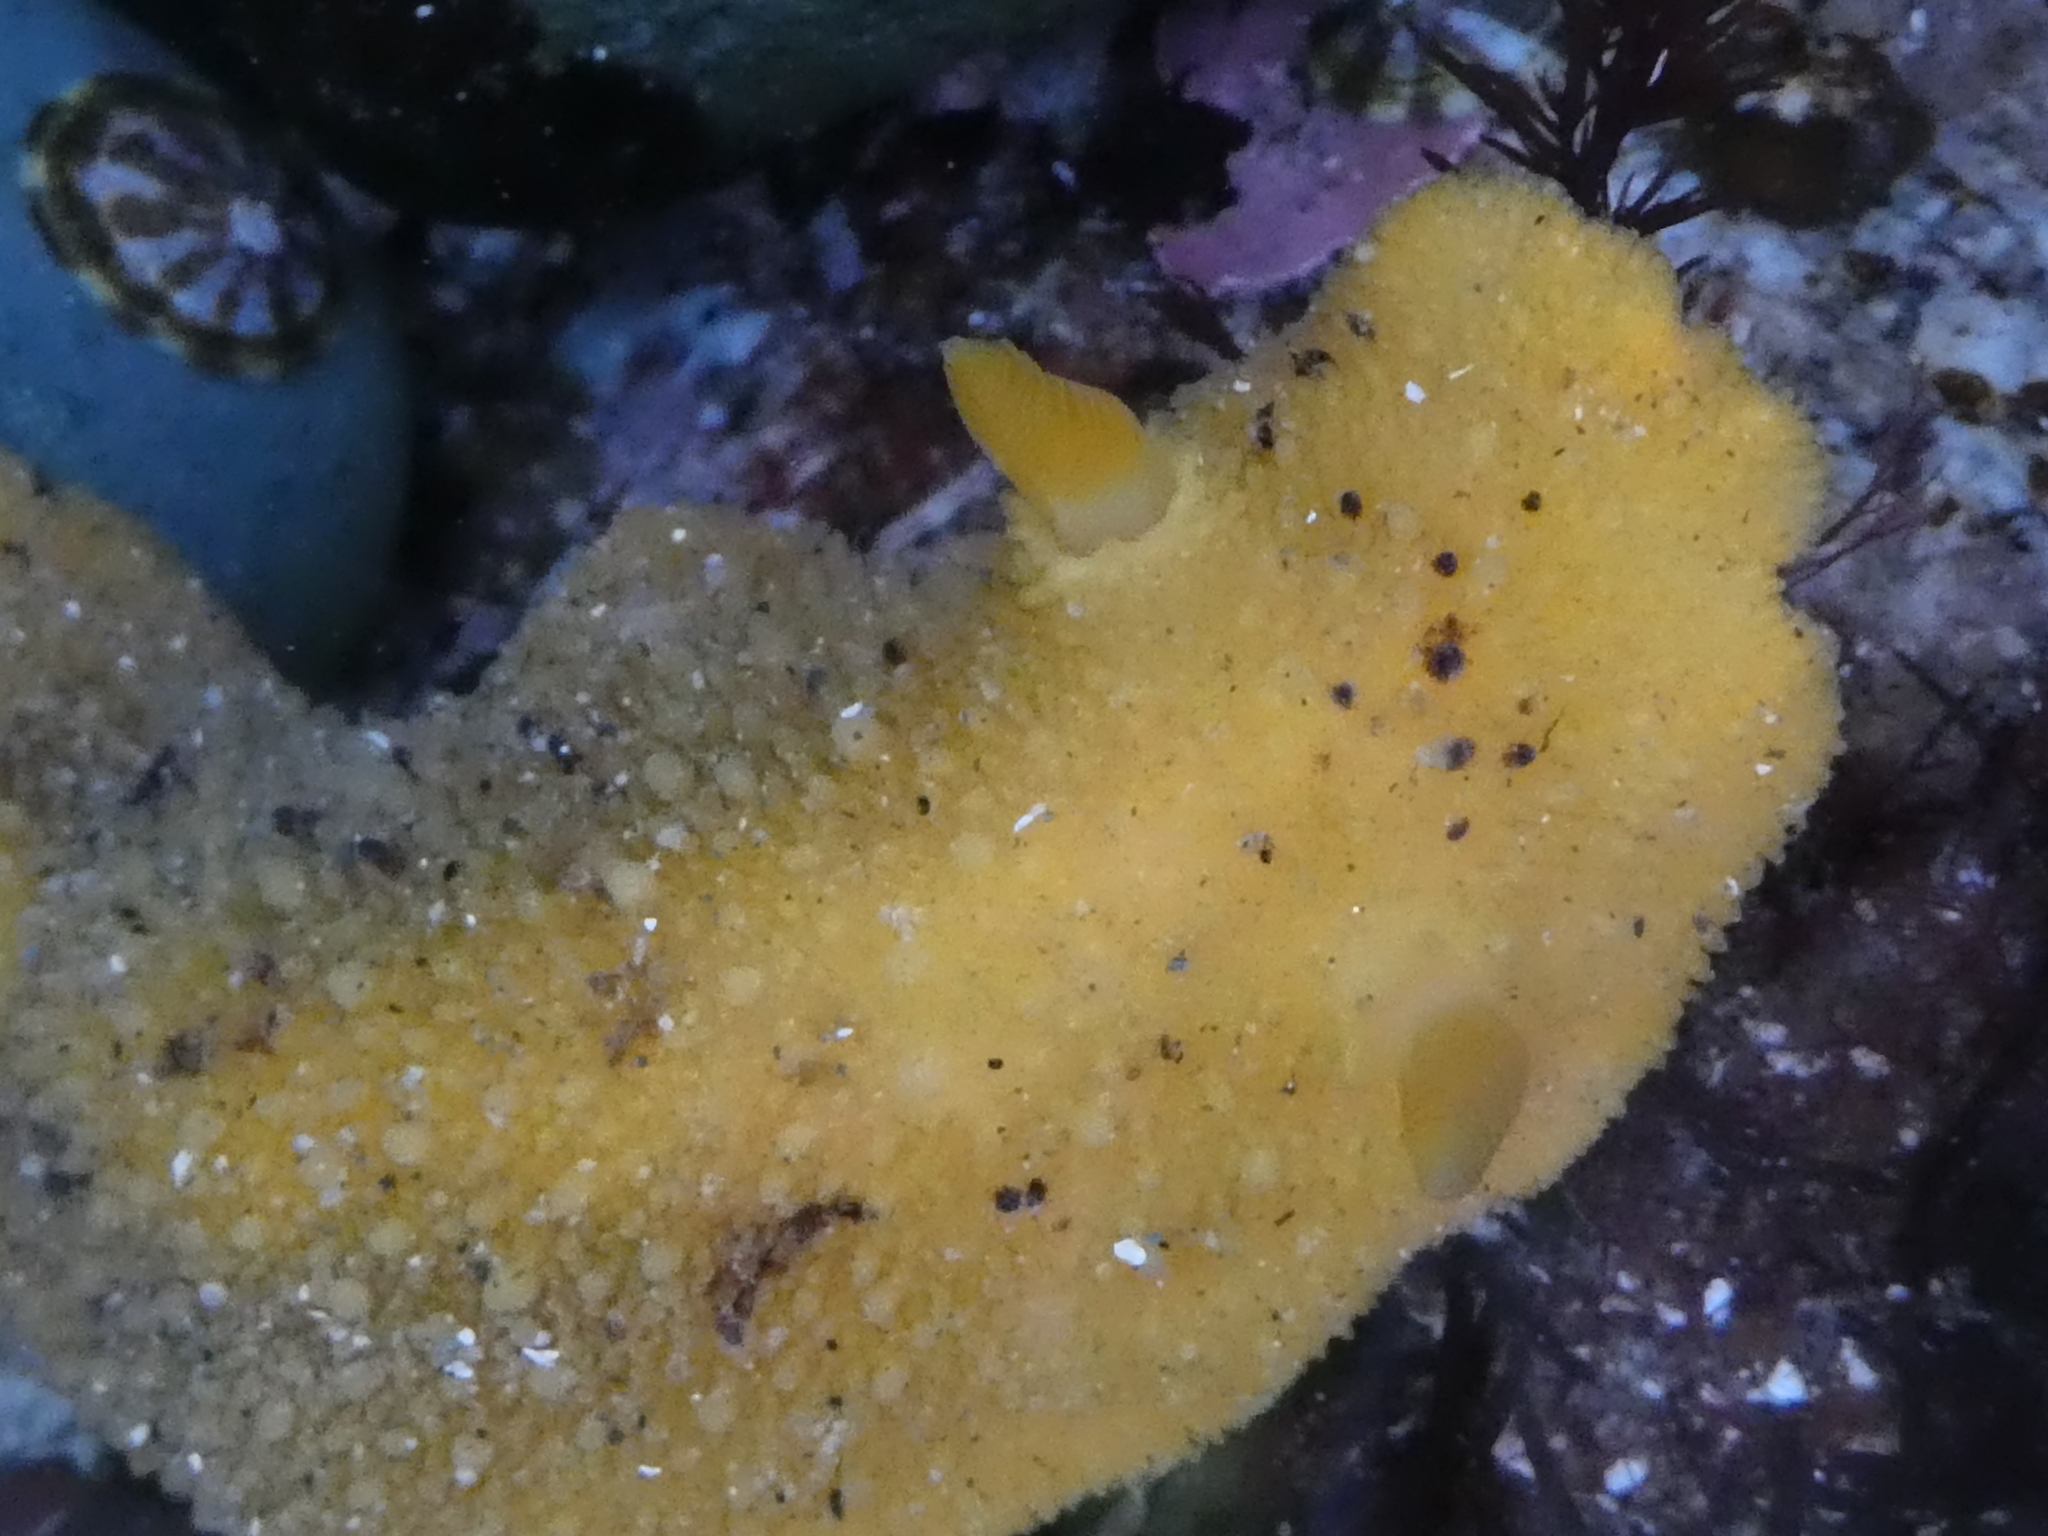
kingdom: Animalia
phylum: Mollusca
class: Gastropoda
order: Nudibranchia
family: Dorididae
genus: Doris
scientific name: Doris montereyensis
